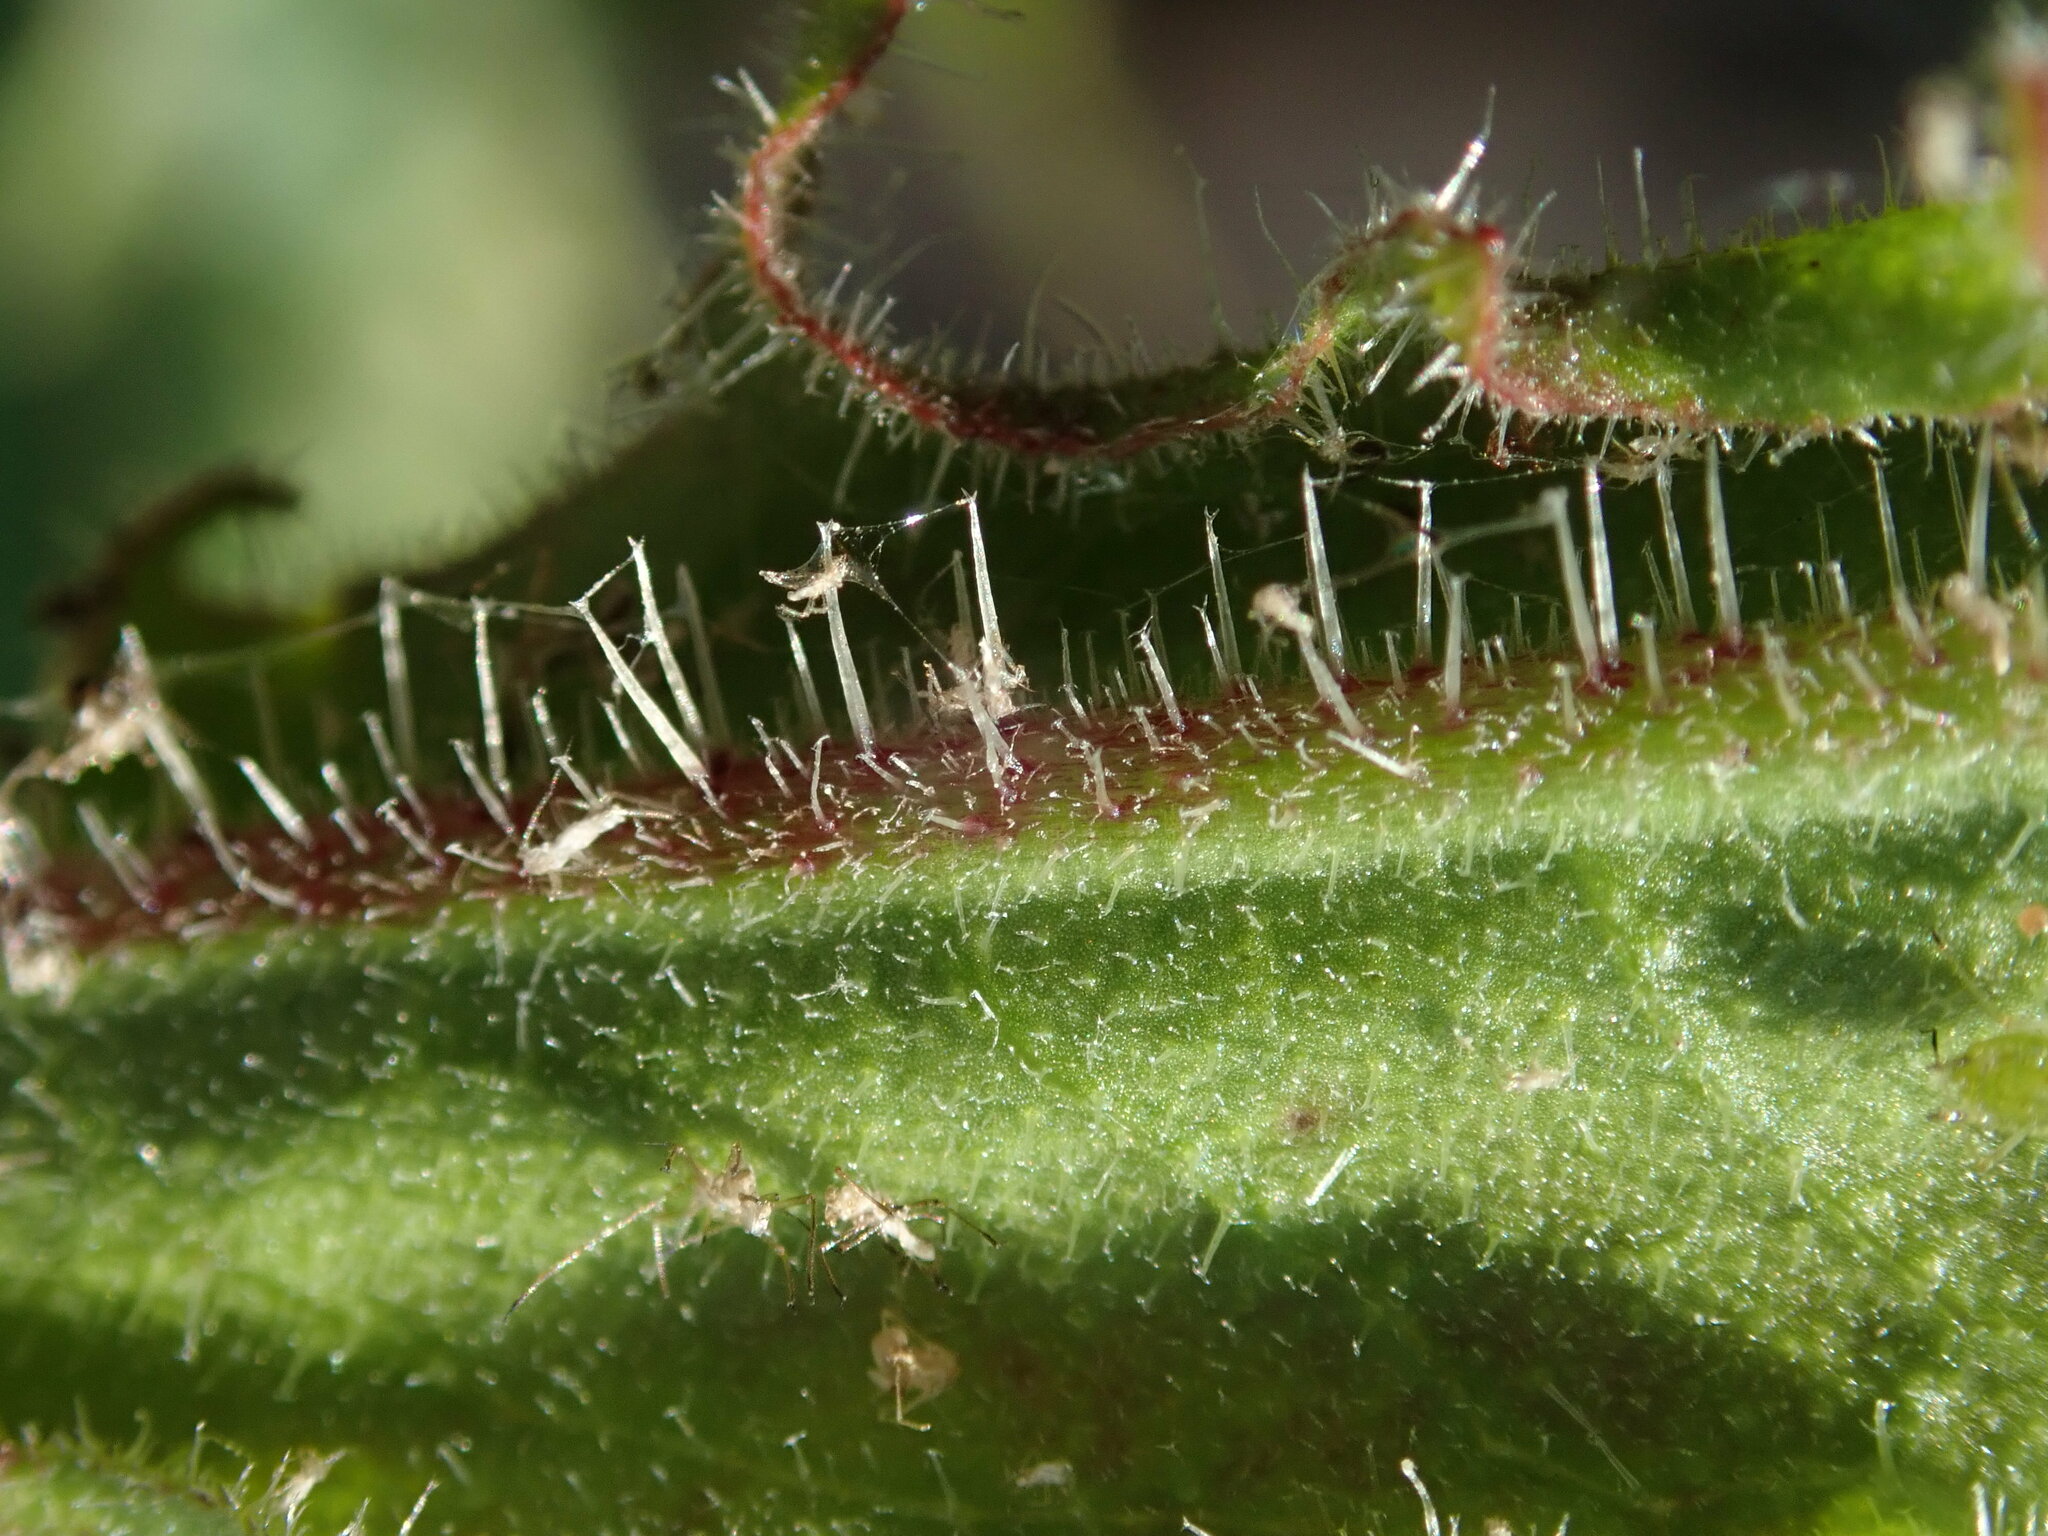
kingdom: Plantae
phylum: Tracheophyta
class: Magnoliopsida
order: Asterales
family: Asteraceae
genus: Picris
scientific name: Picris hieracioides
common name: Hawkweed oxtongue
